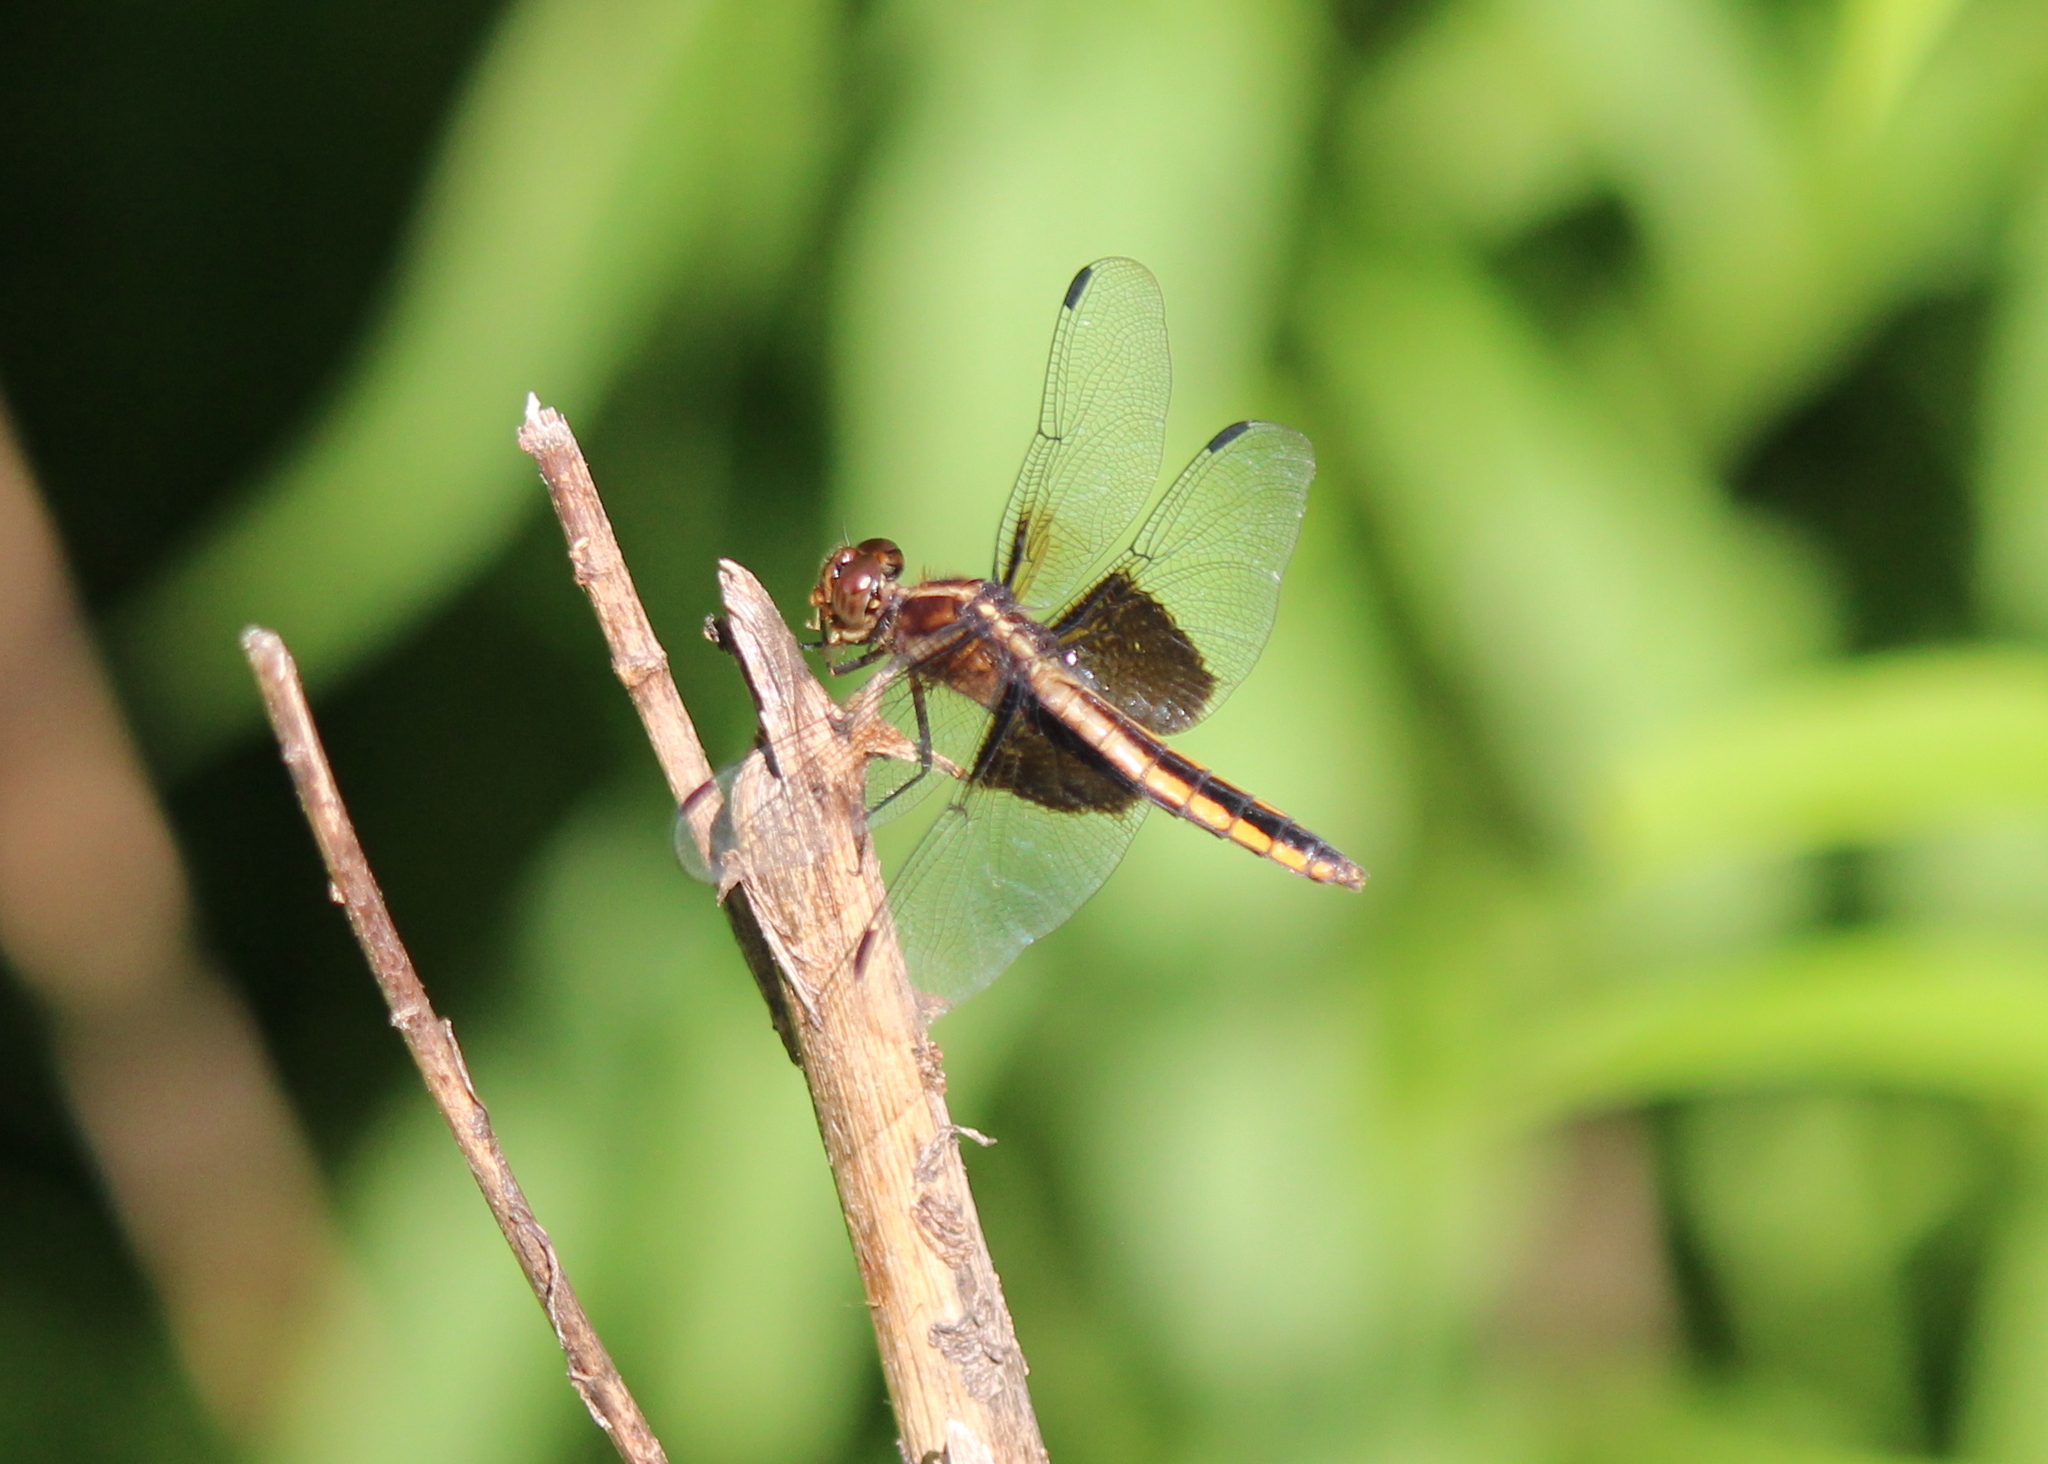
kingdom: Animalia
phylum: Arthropoda
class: Insecta
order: Odonata
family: Libellulidae
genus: Libellula
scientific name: Libellula luctuosa
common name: Widow skimmer
